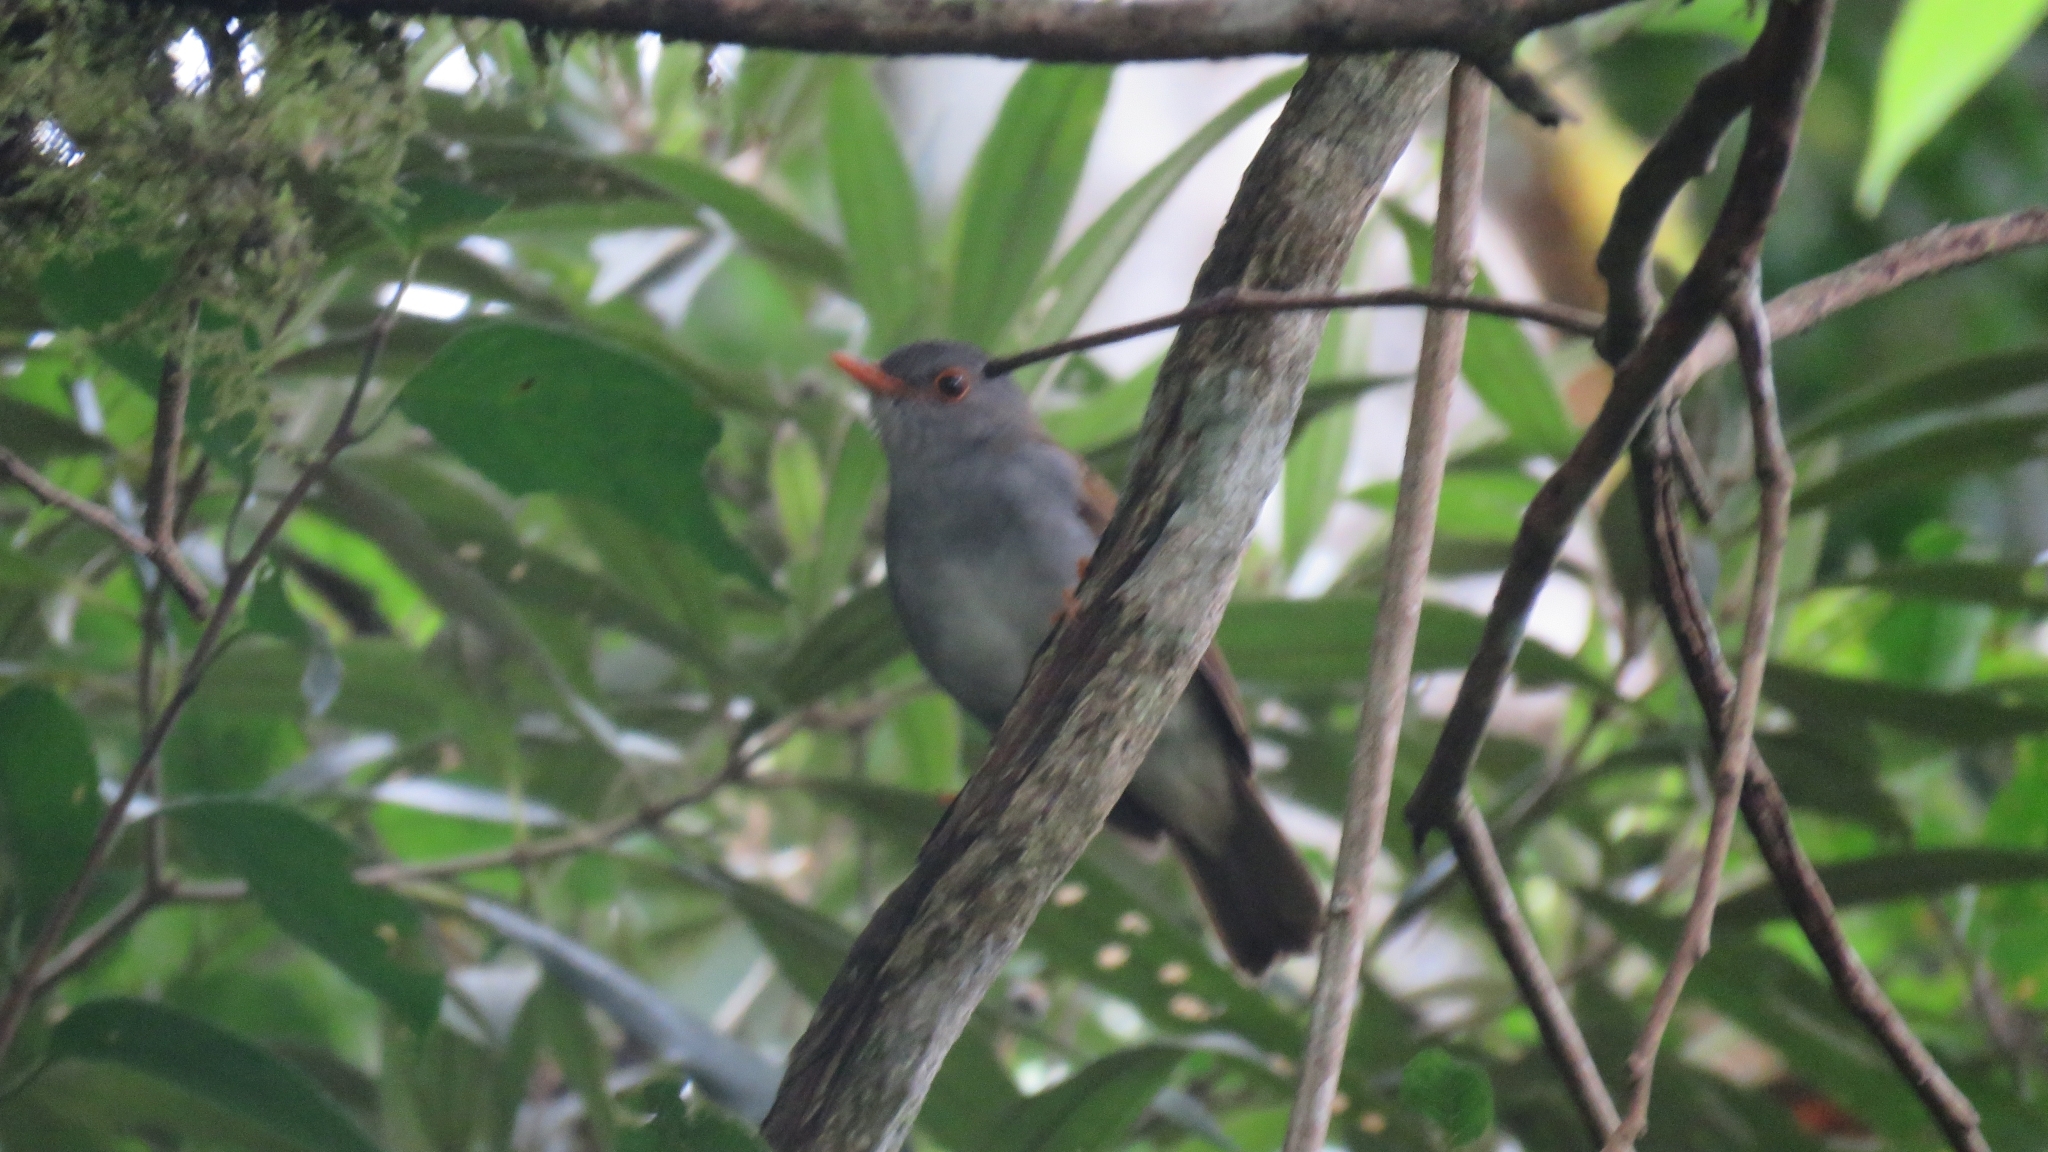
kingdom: Animalia
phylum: Chordata
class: Aves
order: Passeriformes
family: Turdidae
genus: Catharus
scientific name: Catharus aurantiirostris
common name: Orange-billed nightingale-thrush
